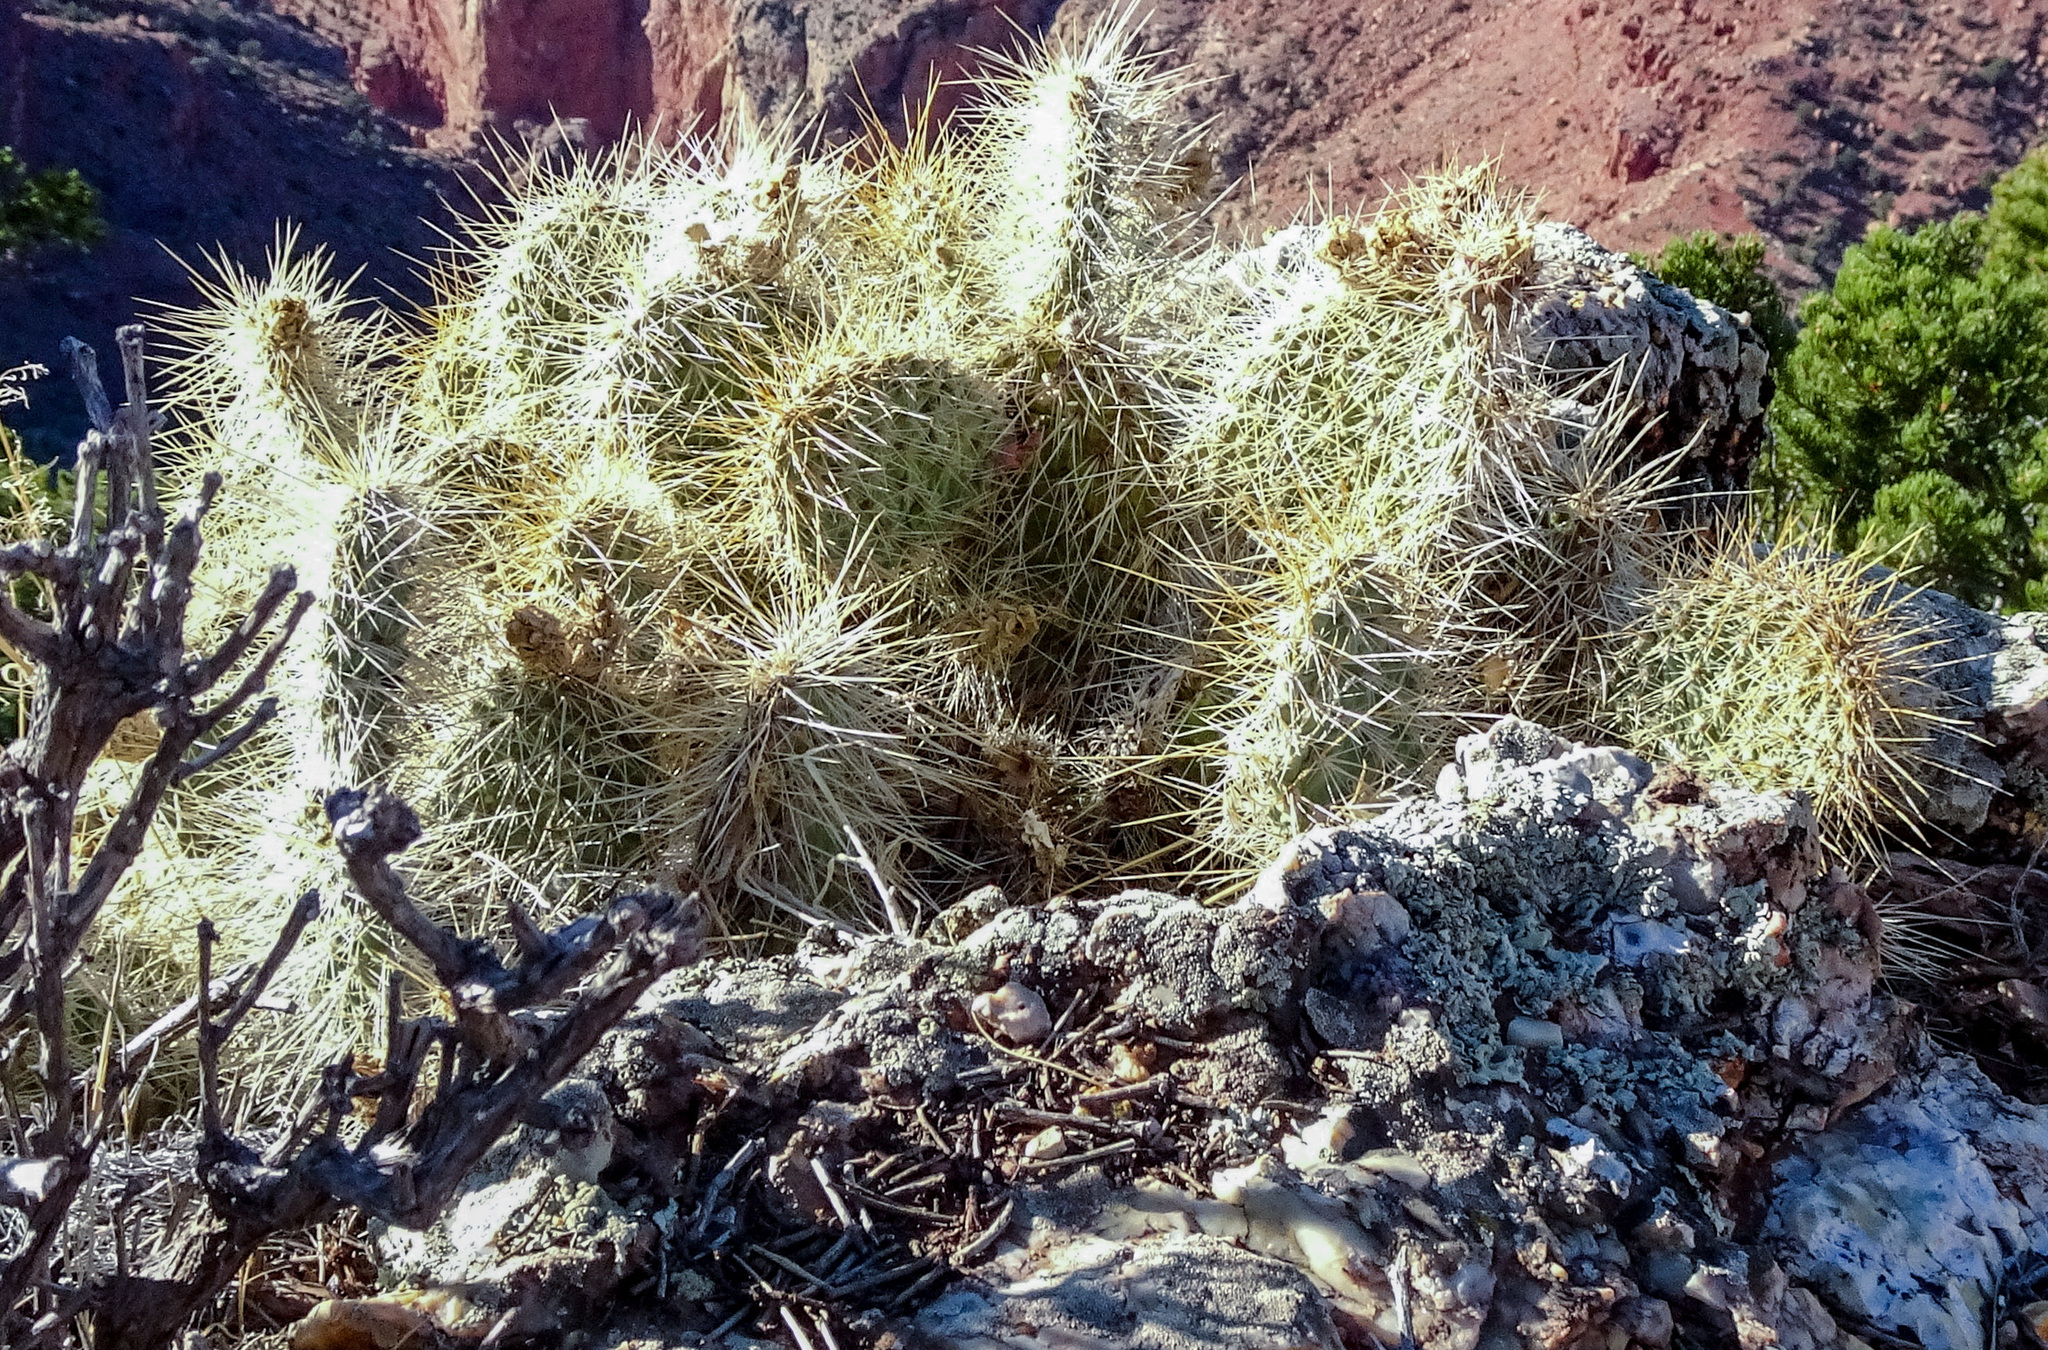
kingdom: Plantae
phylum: Tracheophyta
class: Magnoliopsida
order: Caryophyllales
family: Cactaceae
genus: Opuntia
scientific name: Opuntia polyacantha
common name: Plains prickly-pear
